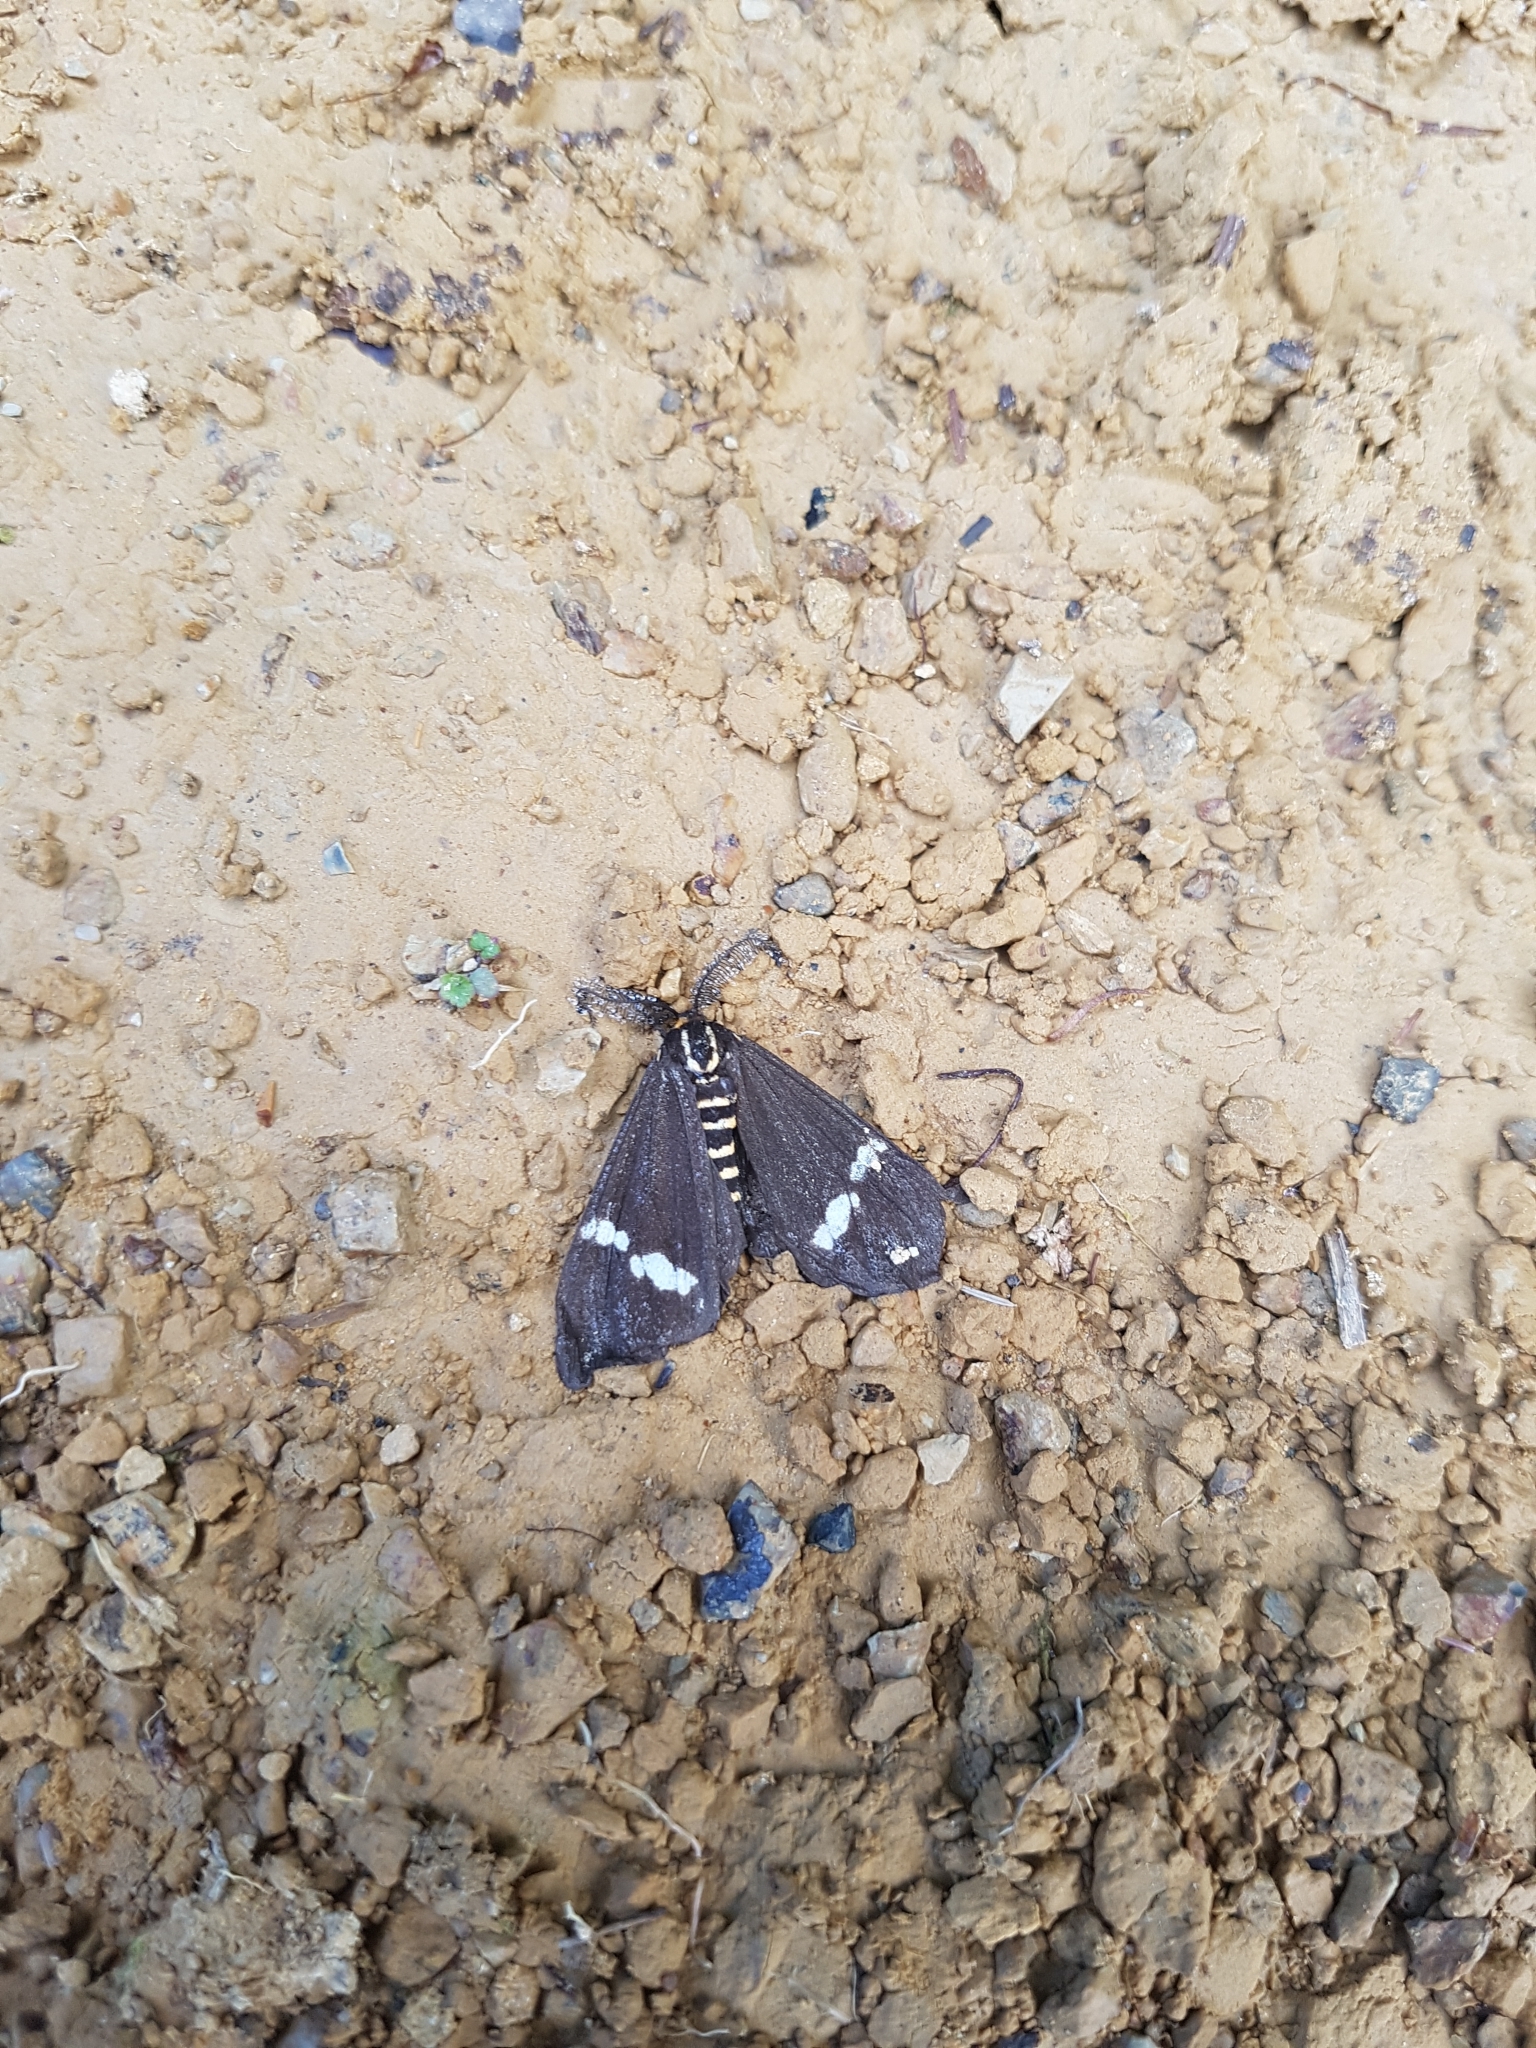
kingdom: Animalia
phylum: Arthropoda
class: Insecta
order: Lepidoptera
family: Erebidae
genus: Nyctemera
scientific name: Nyctemera annulatum
